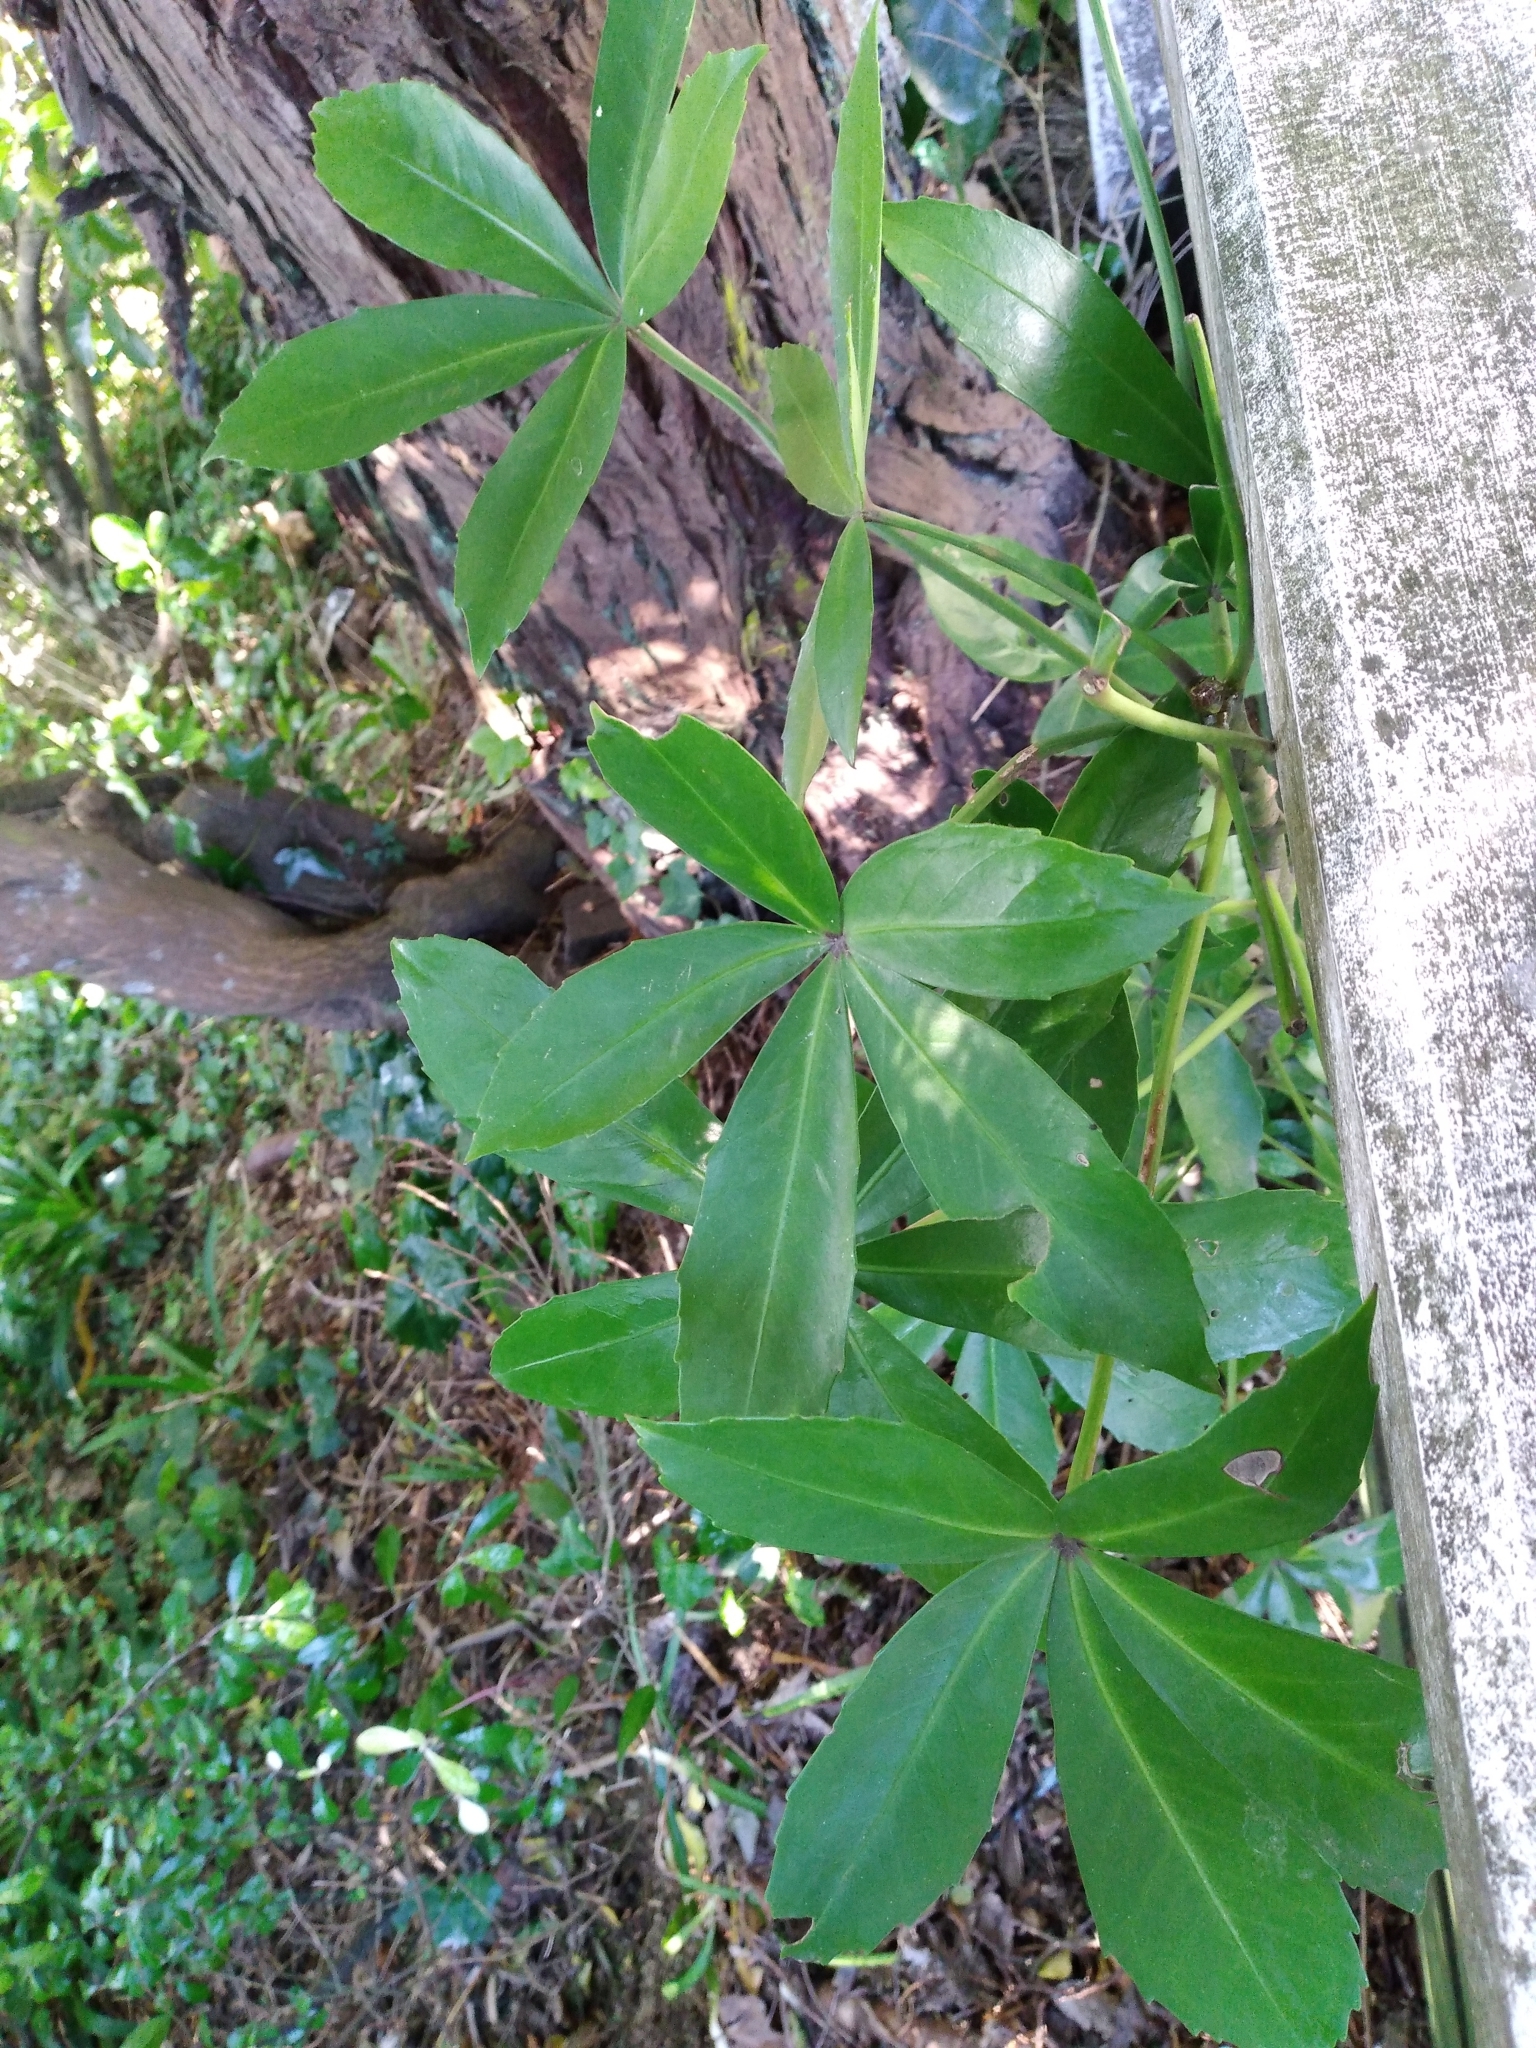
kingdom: Plantae
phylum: Tracheophyta
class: Magnoliopsida
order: Apiales
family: Araliaceae
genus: Pseudopanax
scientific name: Pseudopanax lessonii
